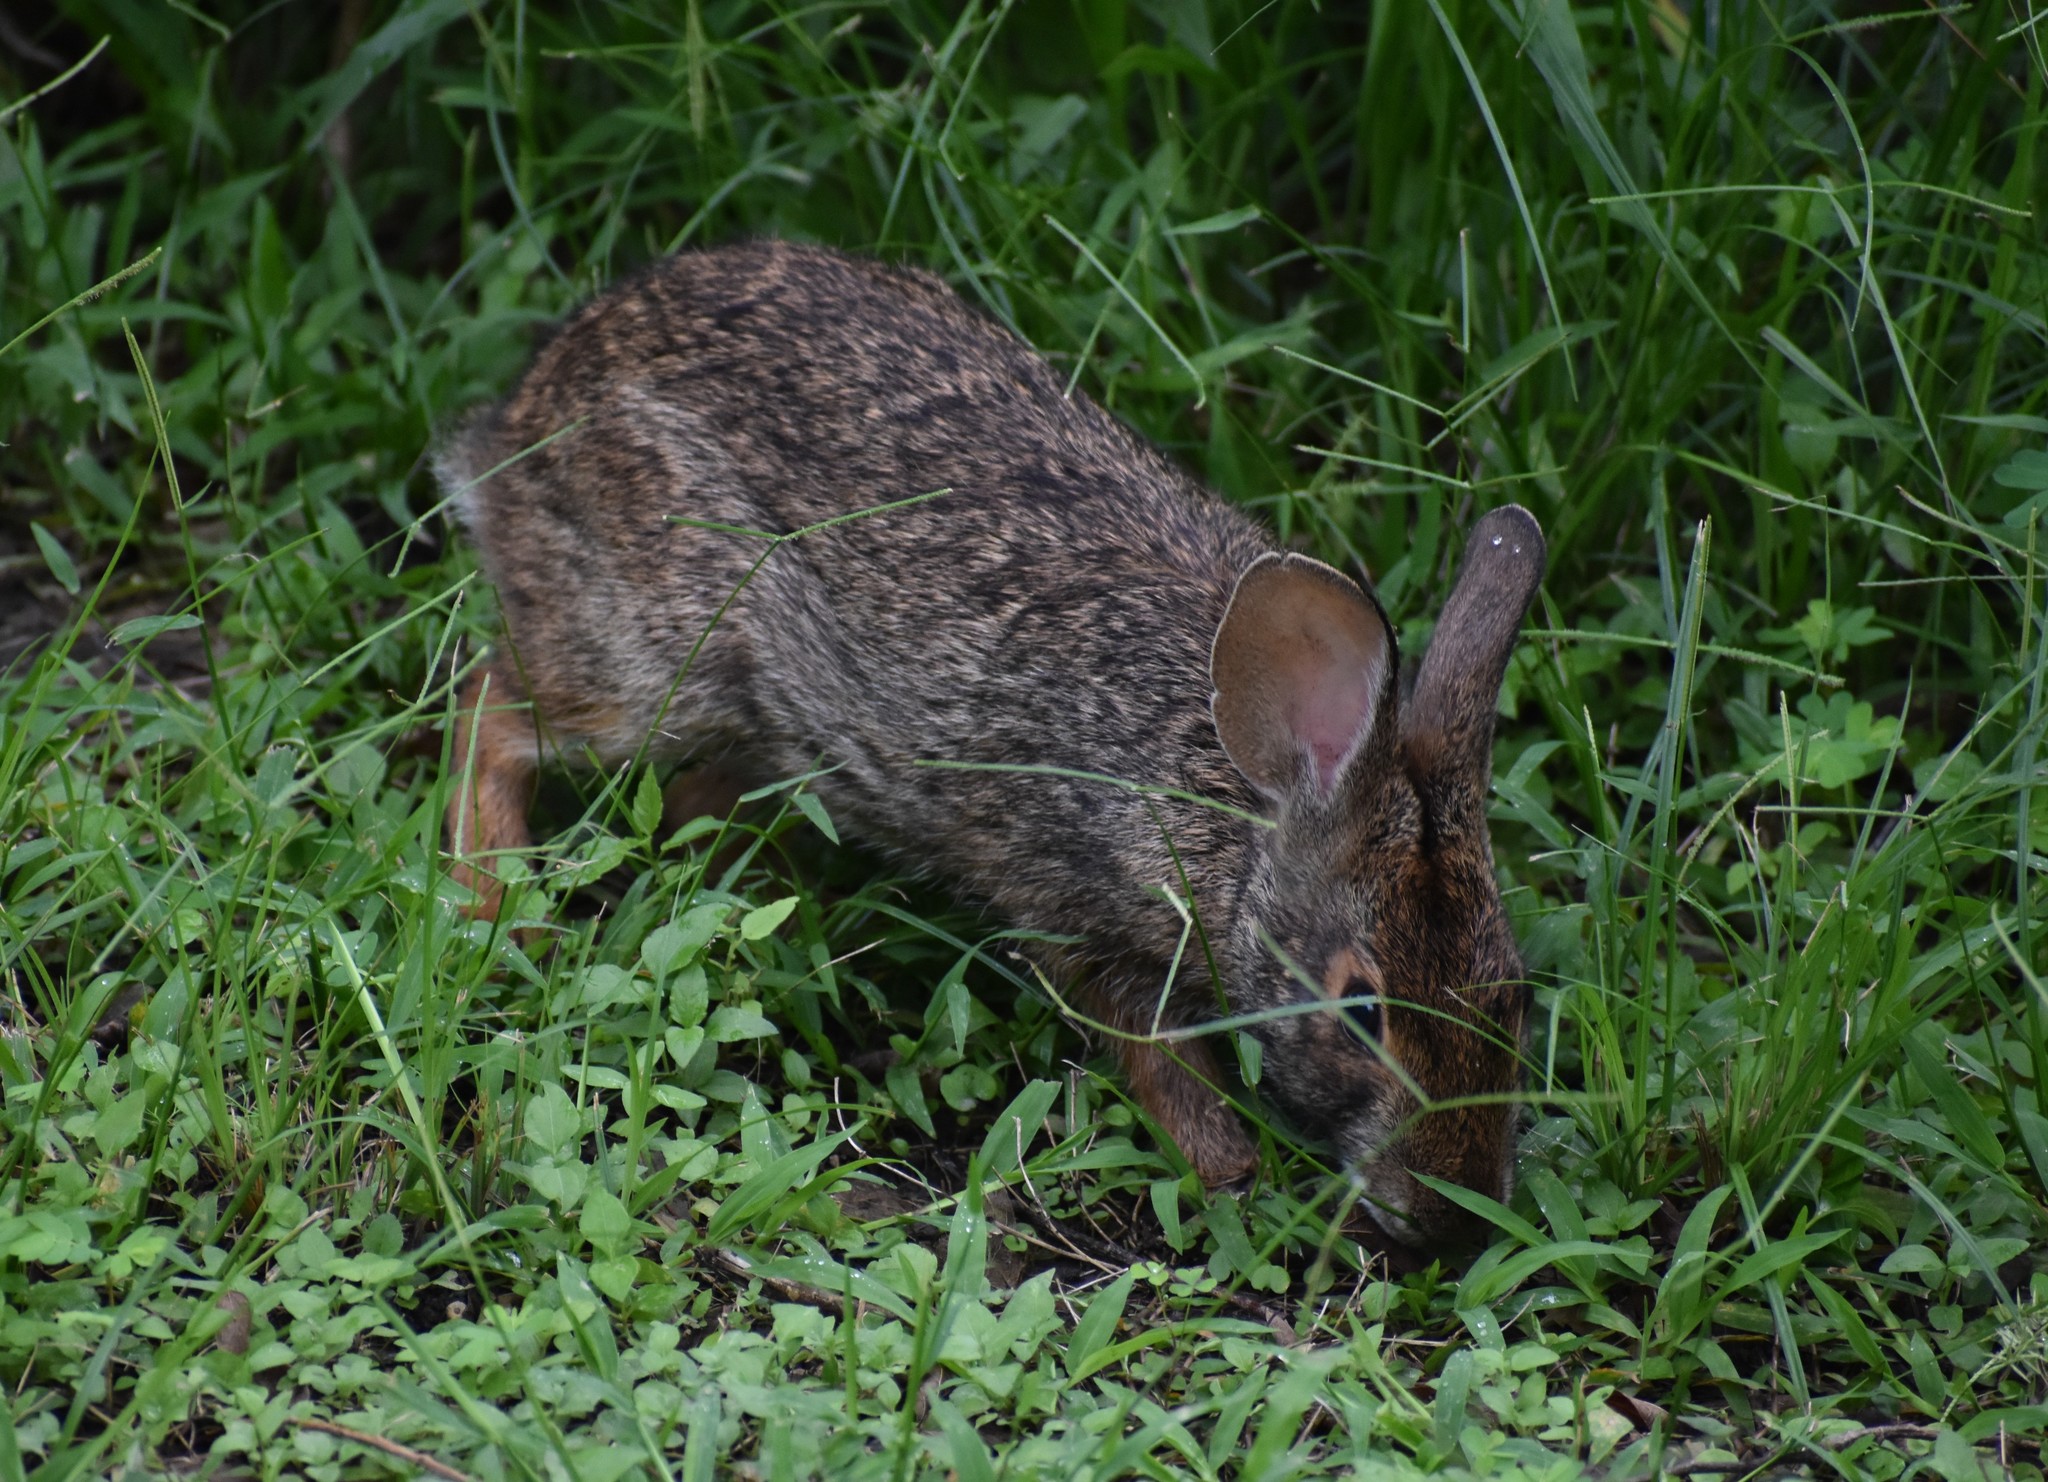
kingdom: Animalia
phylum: Chordata
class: Mammalia
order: Lagomorpha
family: Leporidae
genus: Sylvilagus
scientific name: Sylvilagus aquaticus
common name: Swamp rabbit
